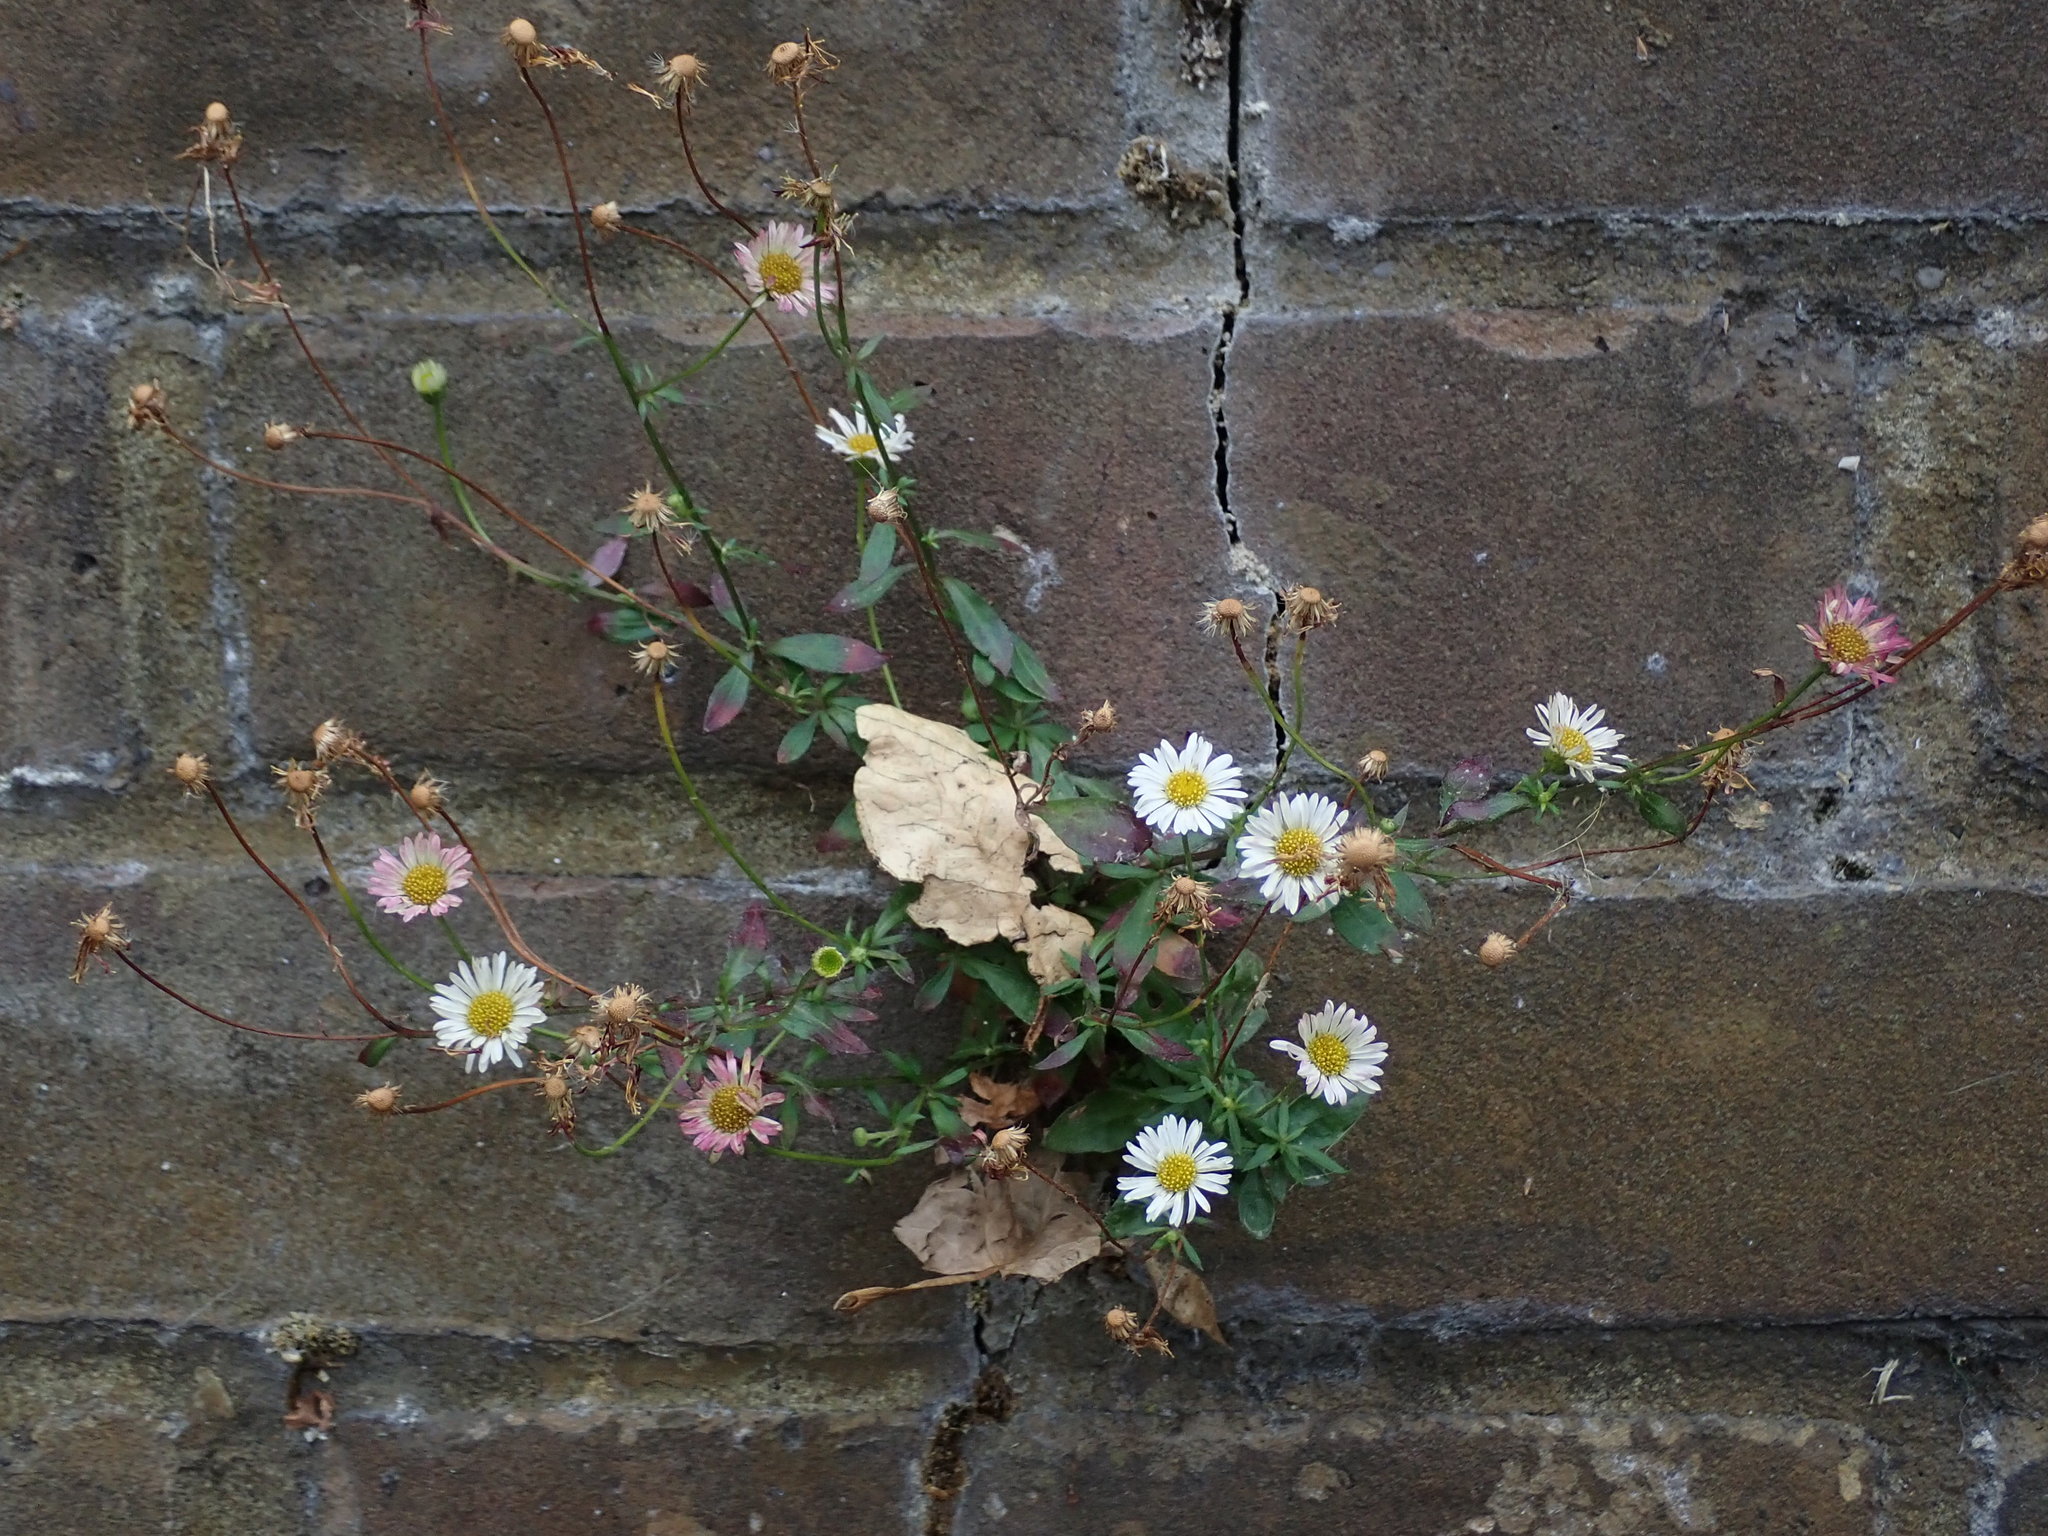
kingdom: Plantae
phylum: Tracheophyta
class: Magnoliopsida
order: Asterales
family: Asteraceae
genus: Erigeron
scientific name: Erigeron karvinskianus
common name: Mexican fleabane
